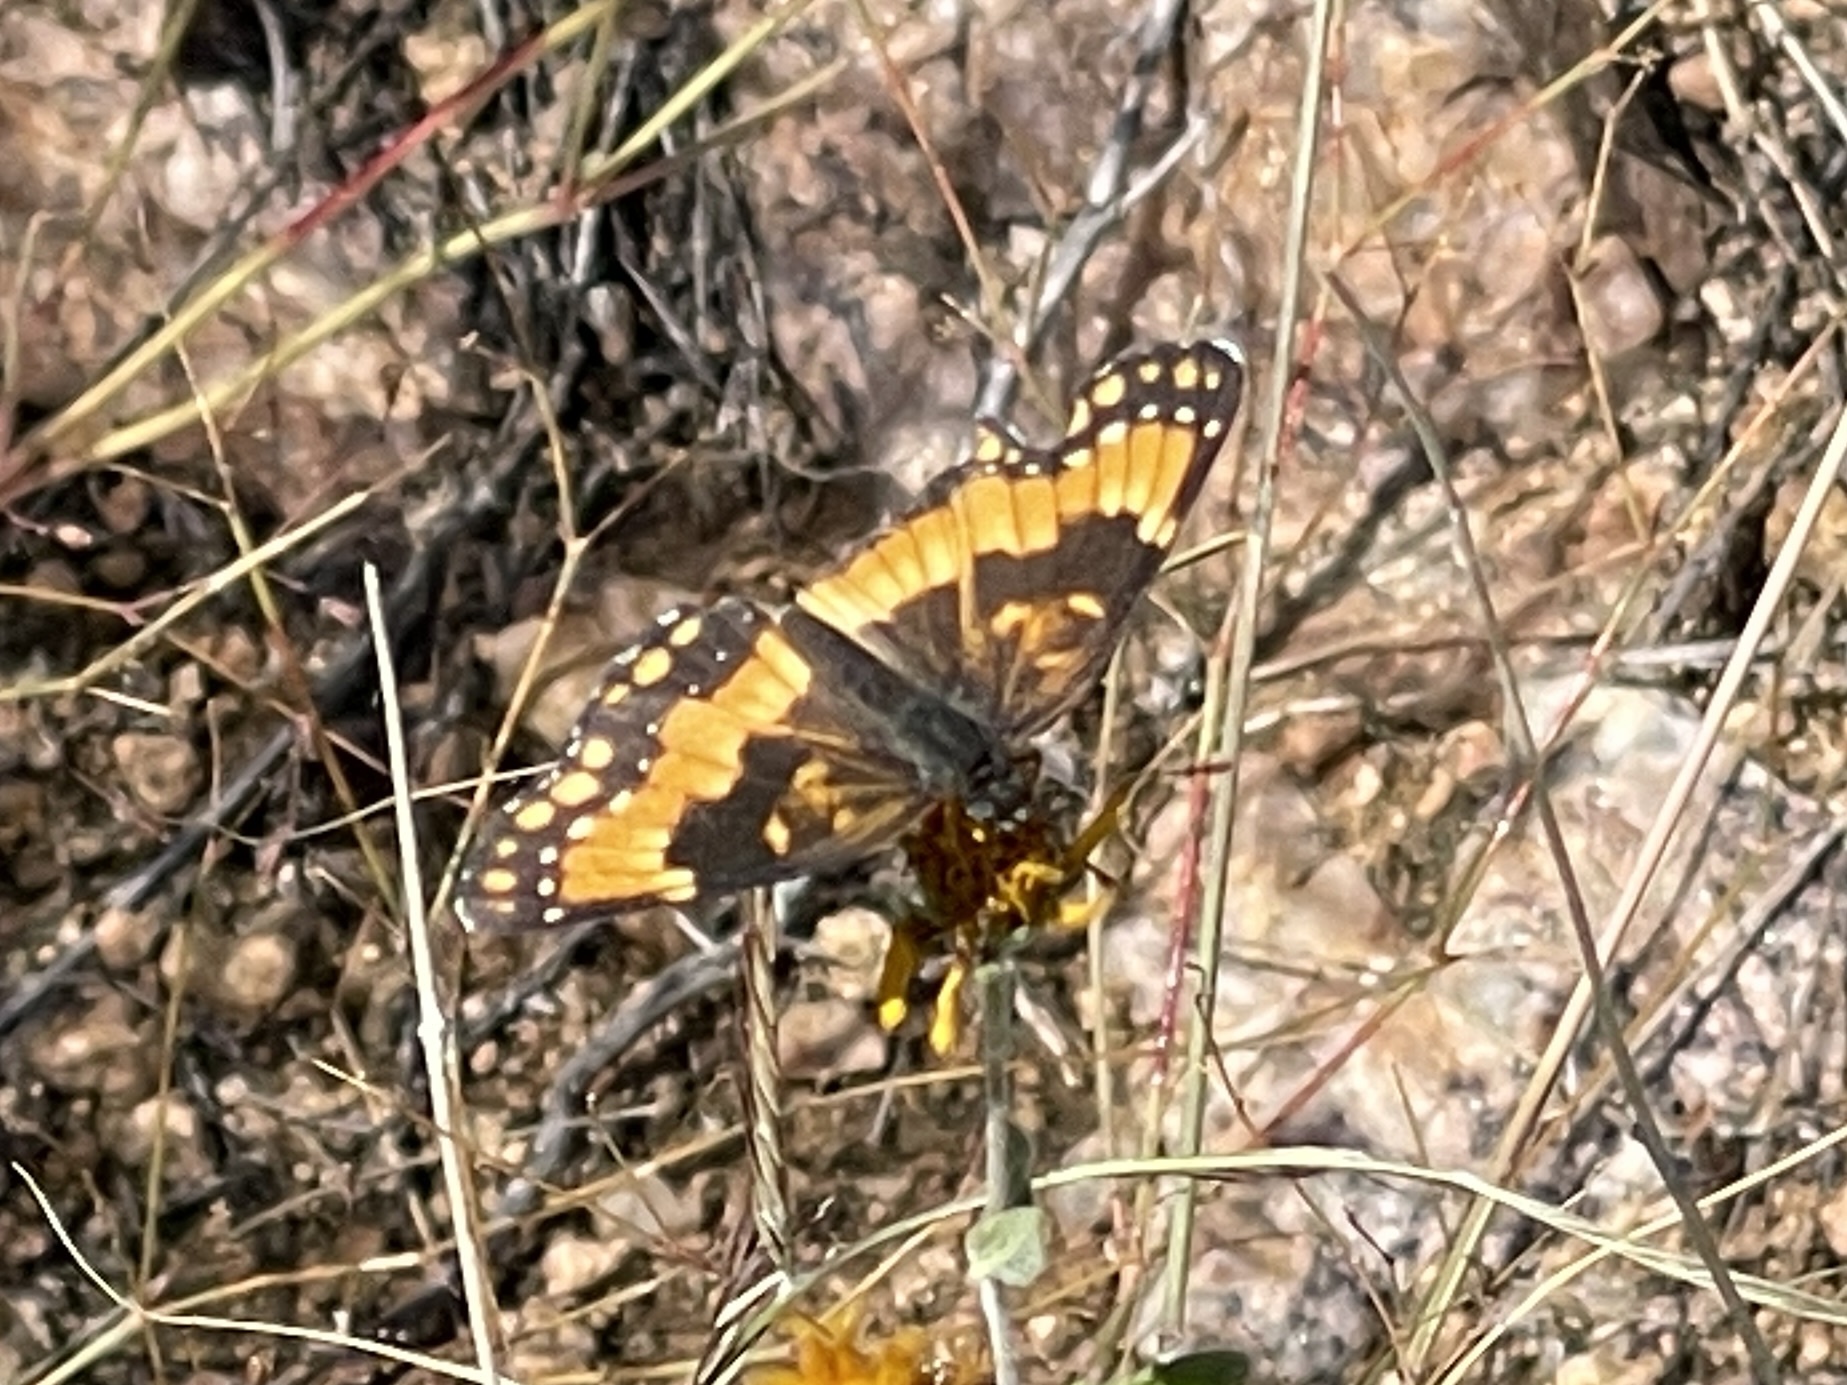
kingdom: Animalia
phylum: Arthropoda
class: Insecta
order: Lepidoptera
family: Nymphalidae
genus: Chlosyne
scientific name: Chlosyne californica
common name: California patch
